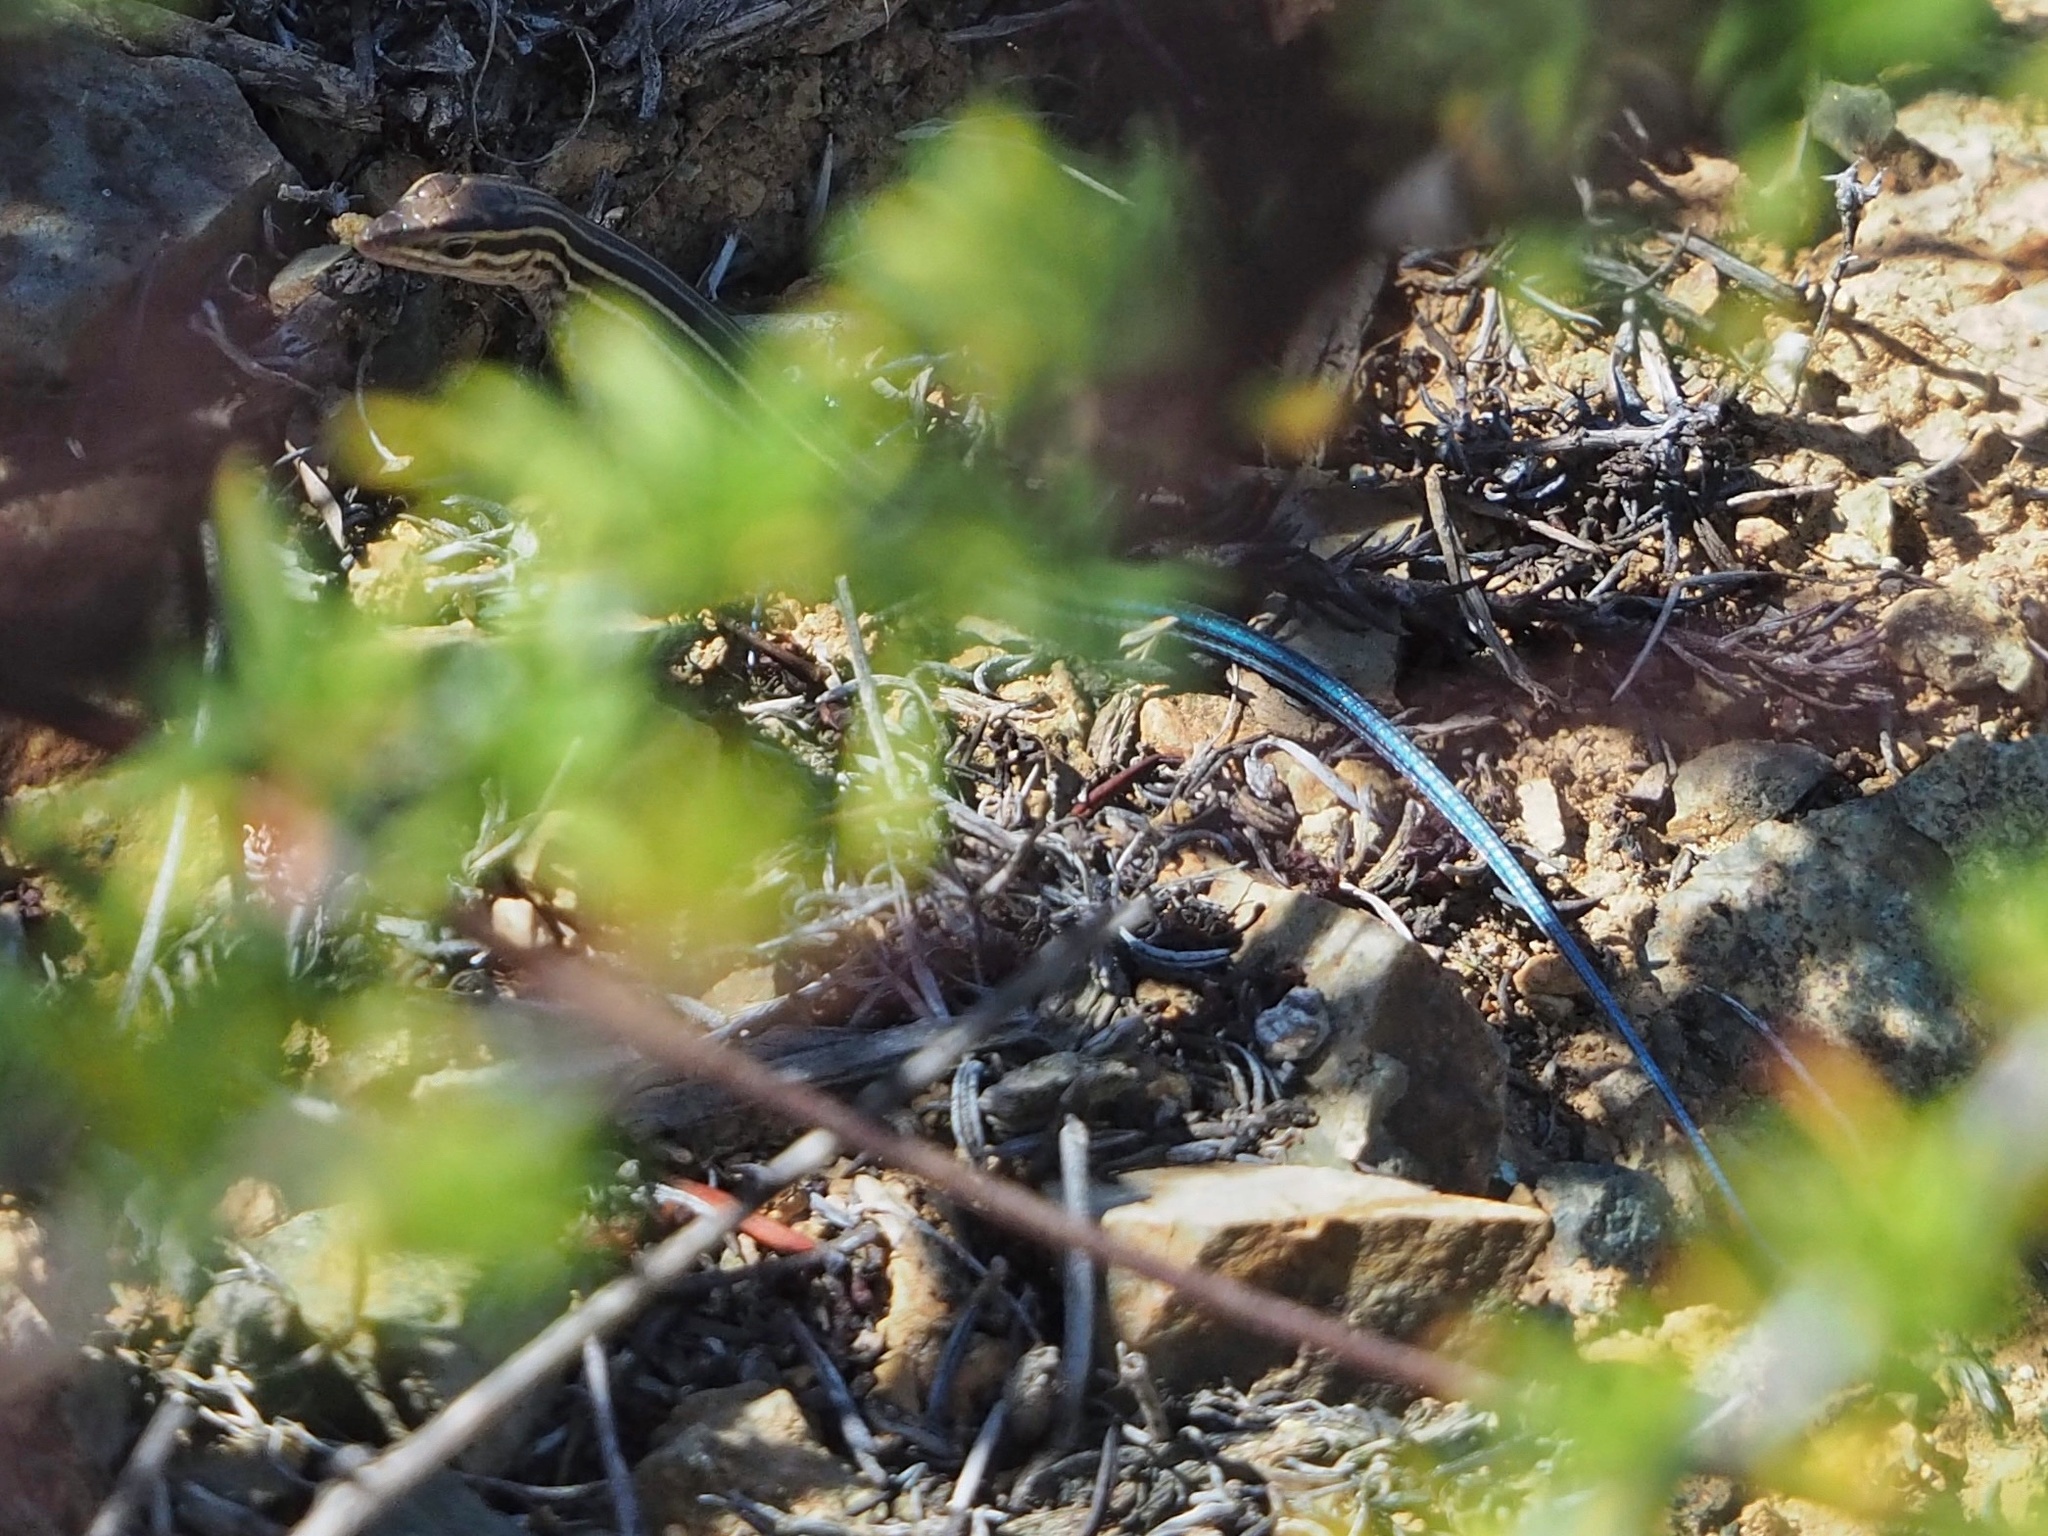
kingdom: Animalia
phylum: Chordata
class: Squamata
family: Teiidae
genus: Aspidoscelis
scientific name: Aspidoscelis hyperythrus
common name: Orange-throated race-runner
